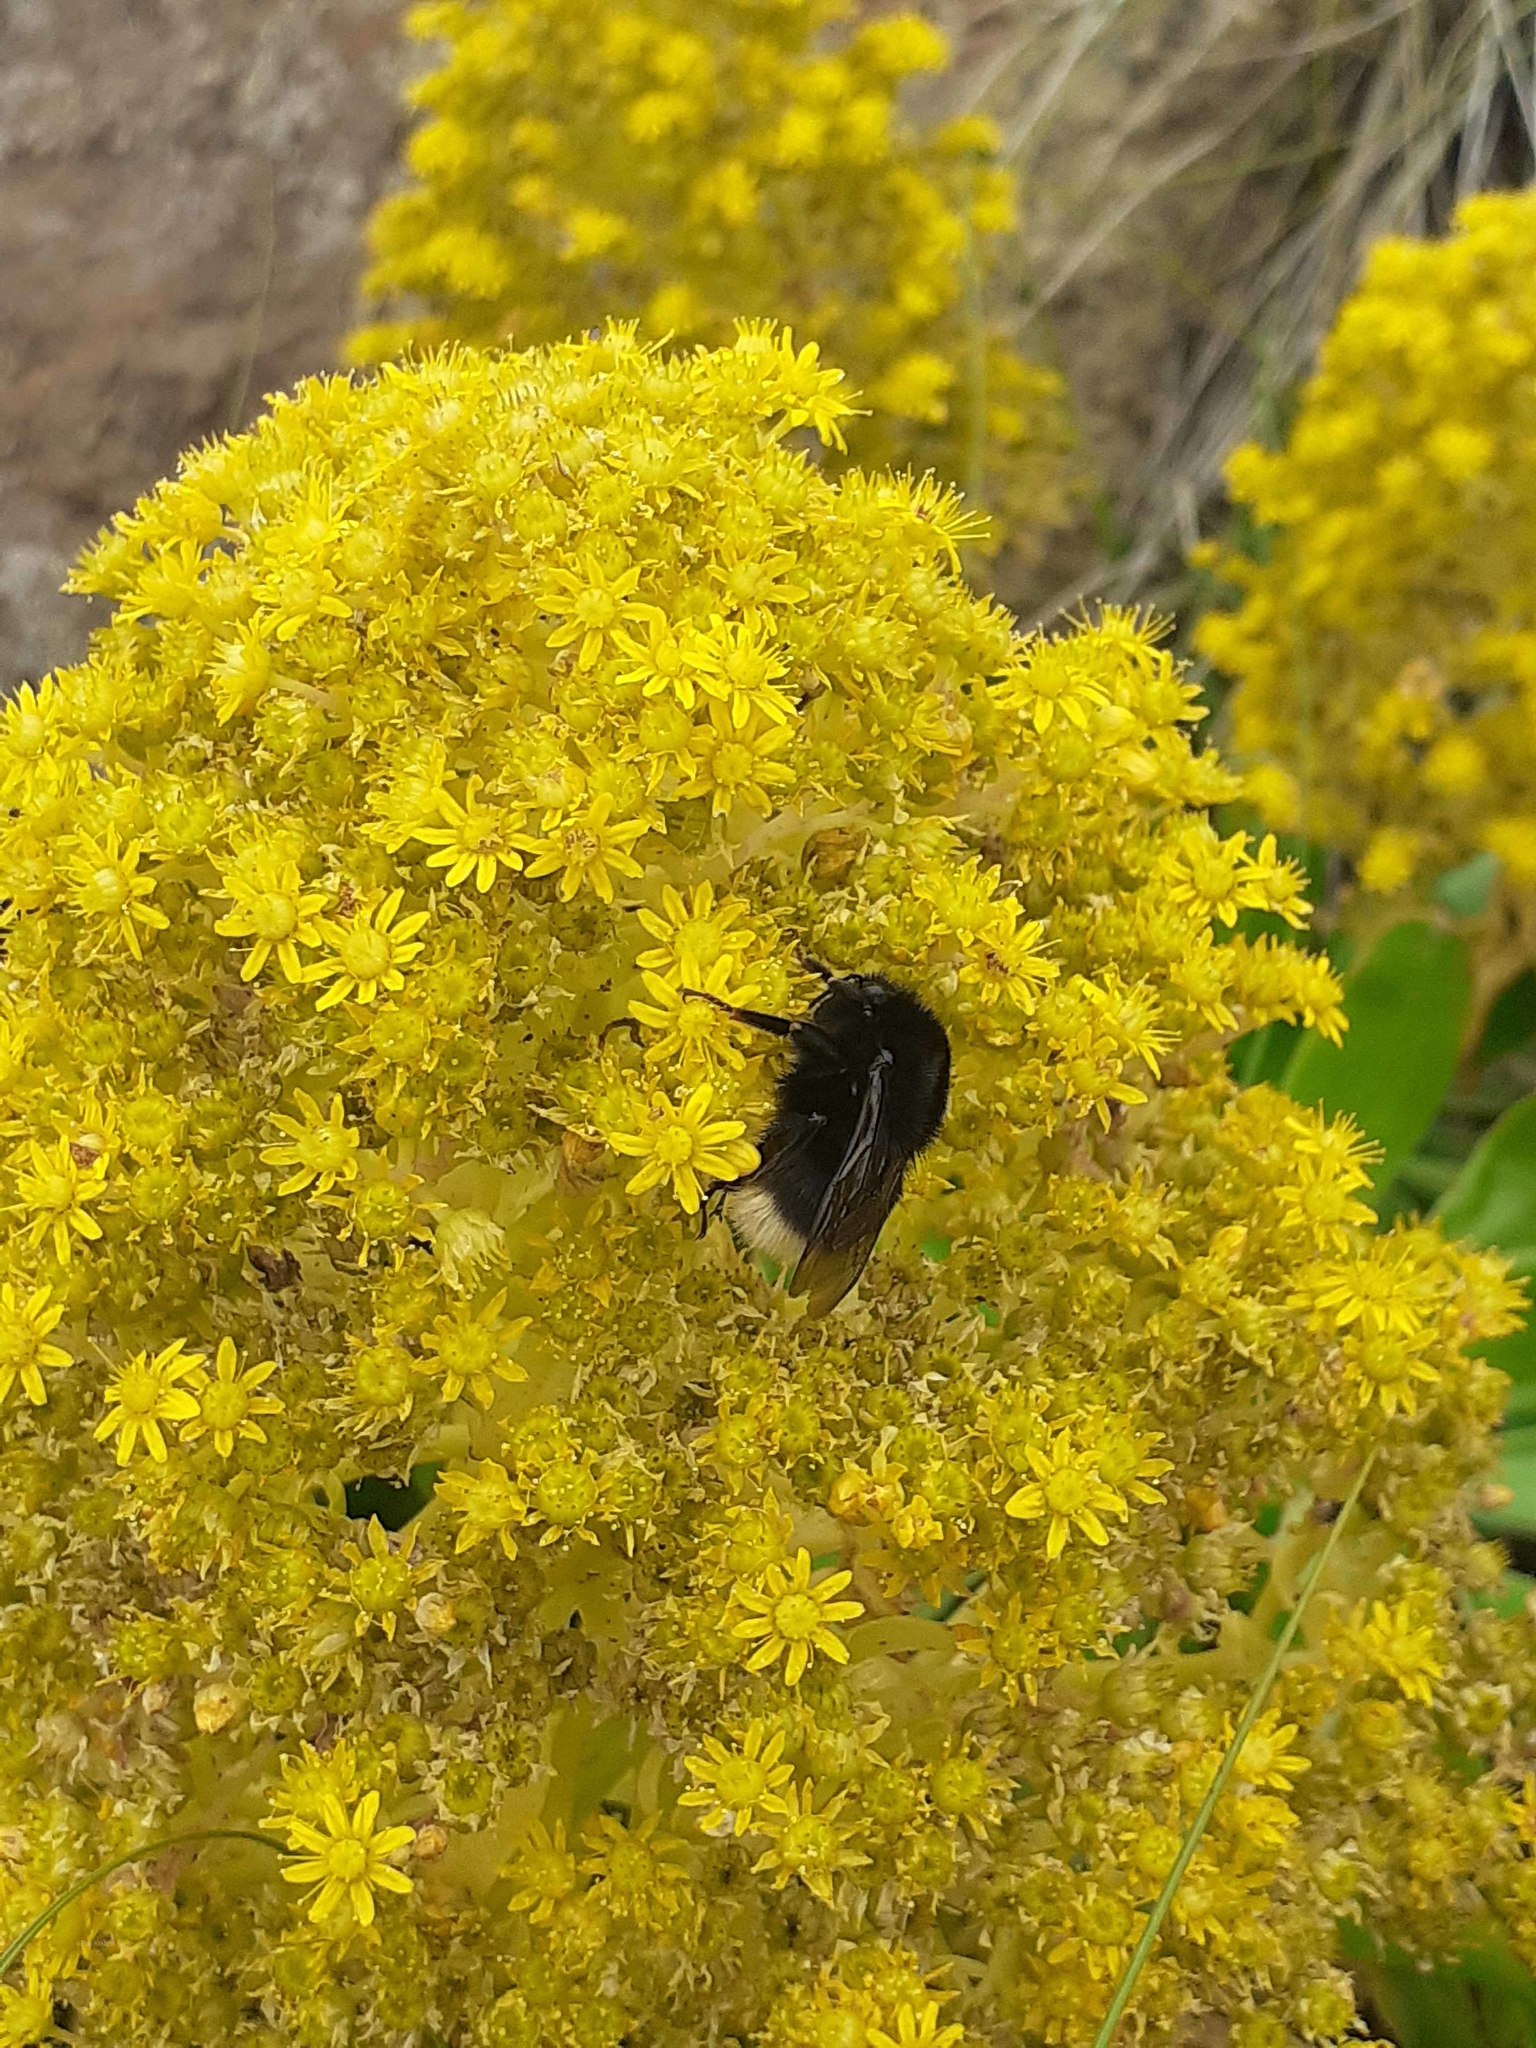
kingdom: Animalia
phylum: Arthropoda
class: Insecta
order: Hymenoptera
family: Apidae
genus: Bombus
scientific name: Bombus terrestris
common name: Buff-tailed bumblebee
